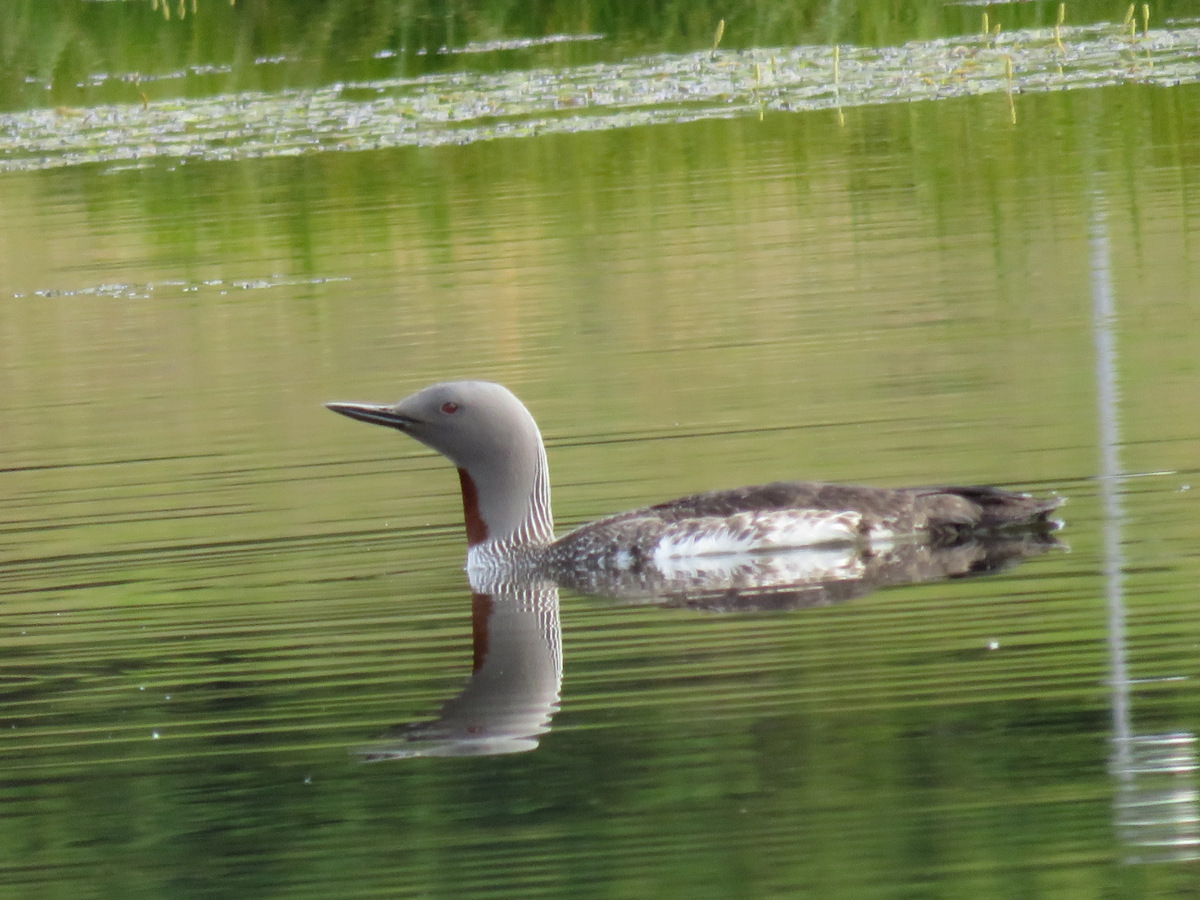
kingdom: Animalia
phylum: Chordata
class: Aves
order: Gaviiformes
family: Gaviidae
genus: Gavia
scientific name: Gavia stellata
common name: Red-throated loon
